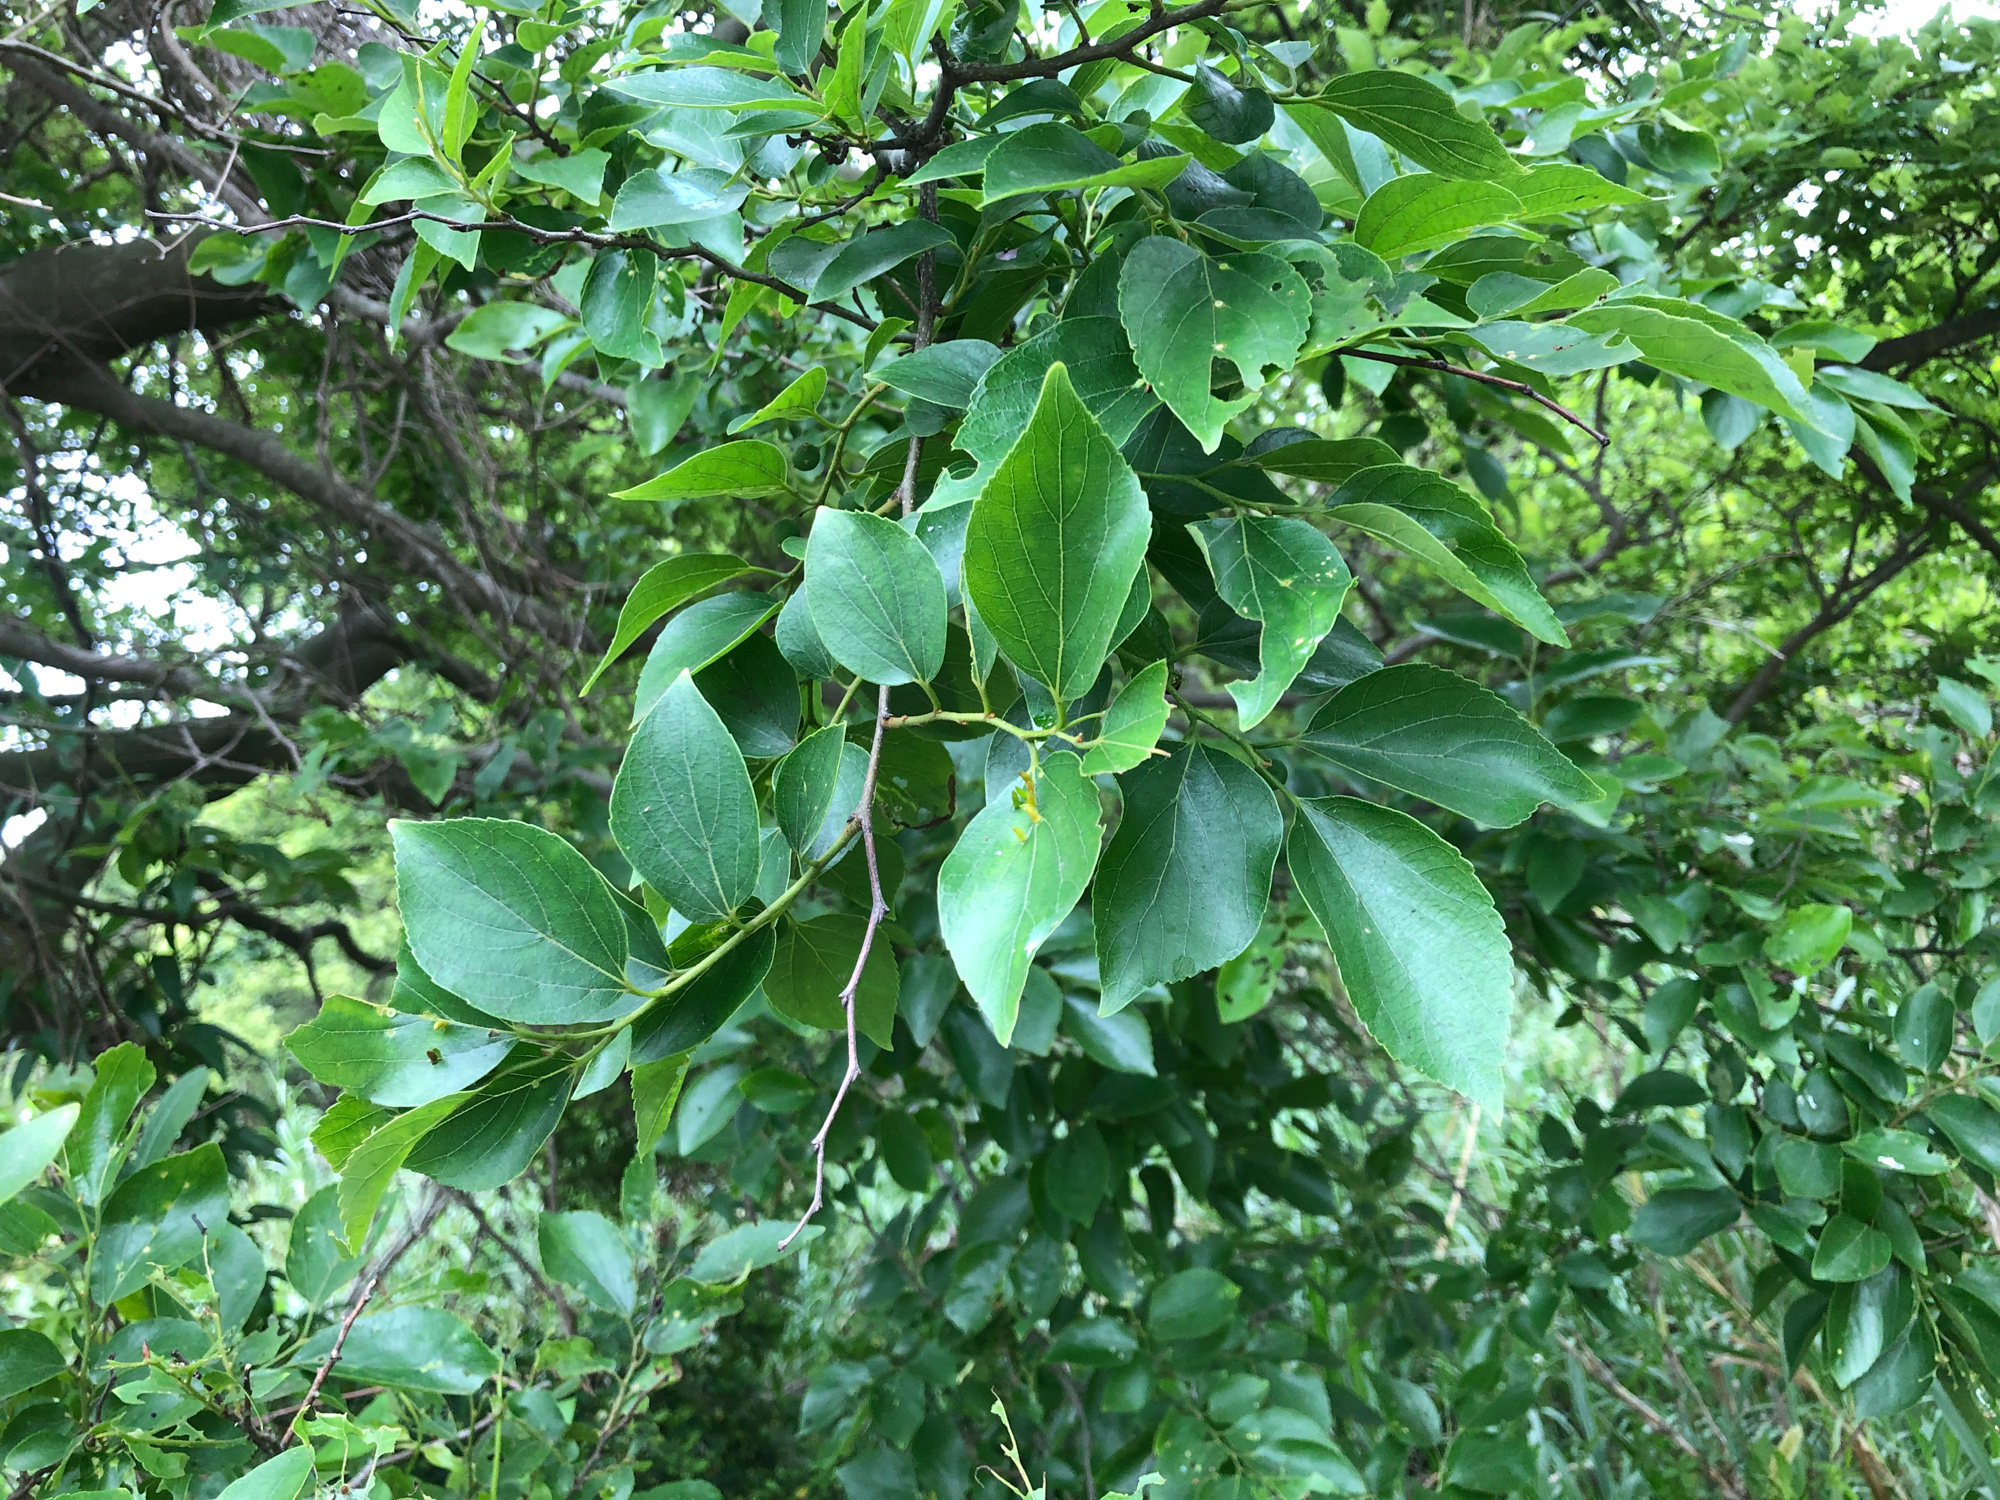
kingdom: Plantae
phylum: Tracheophyta
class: Magnoliopsida
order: Rosales
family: Cannabaceae
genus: Celtis
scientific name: Celtis sinensis
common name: Chinese hackberry
